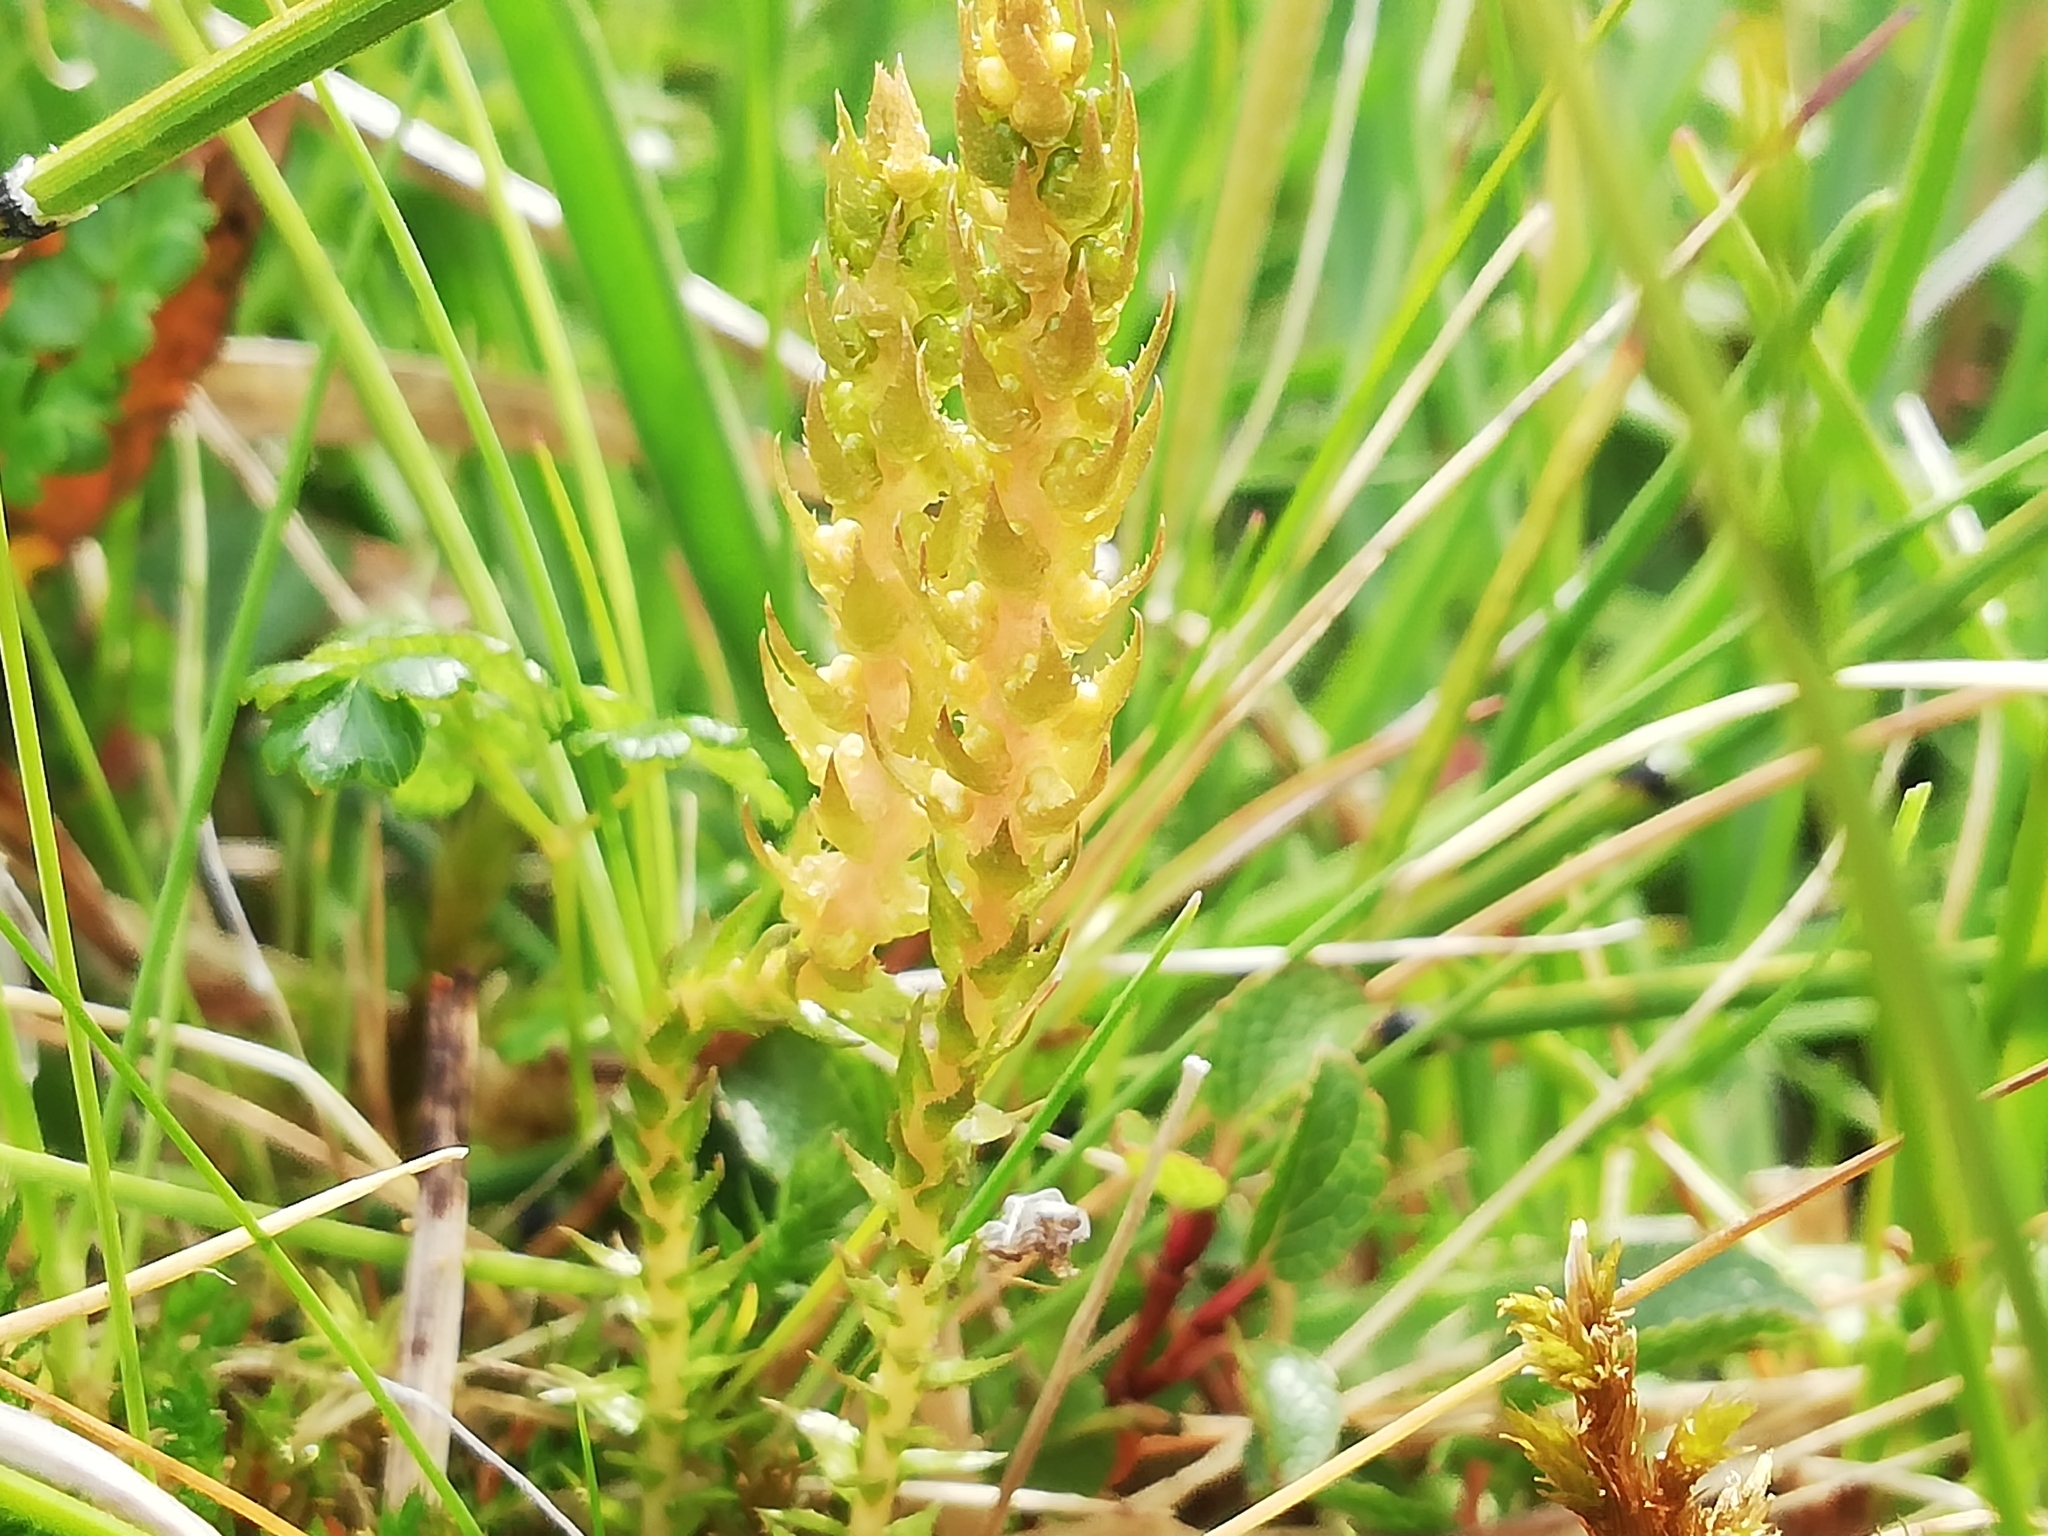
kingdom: Plantae
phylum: Tracheophyta
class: Lycopodiopsida
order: Selaginellales
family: Selaginellaceae
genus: Selaginella
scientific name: Selaginella selaginoides
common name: Prickly mountain-moss
